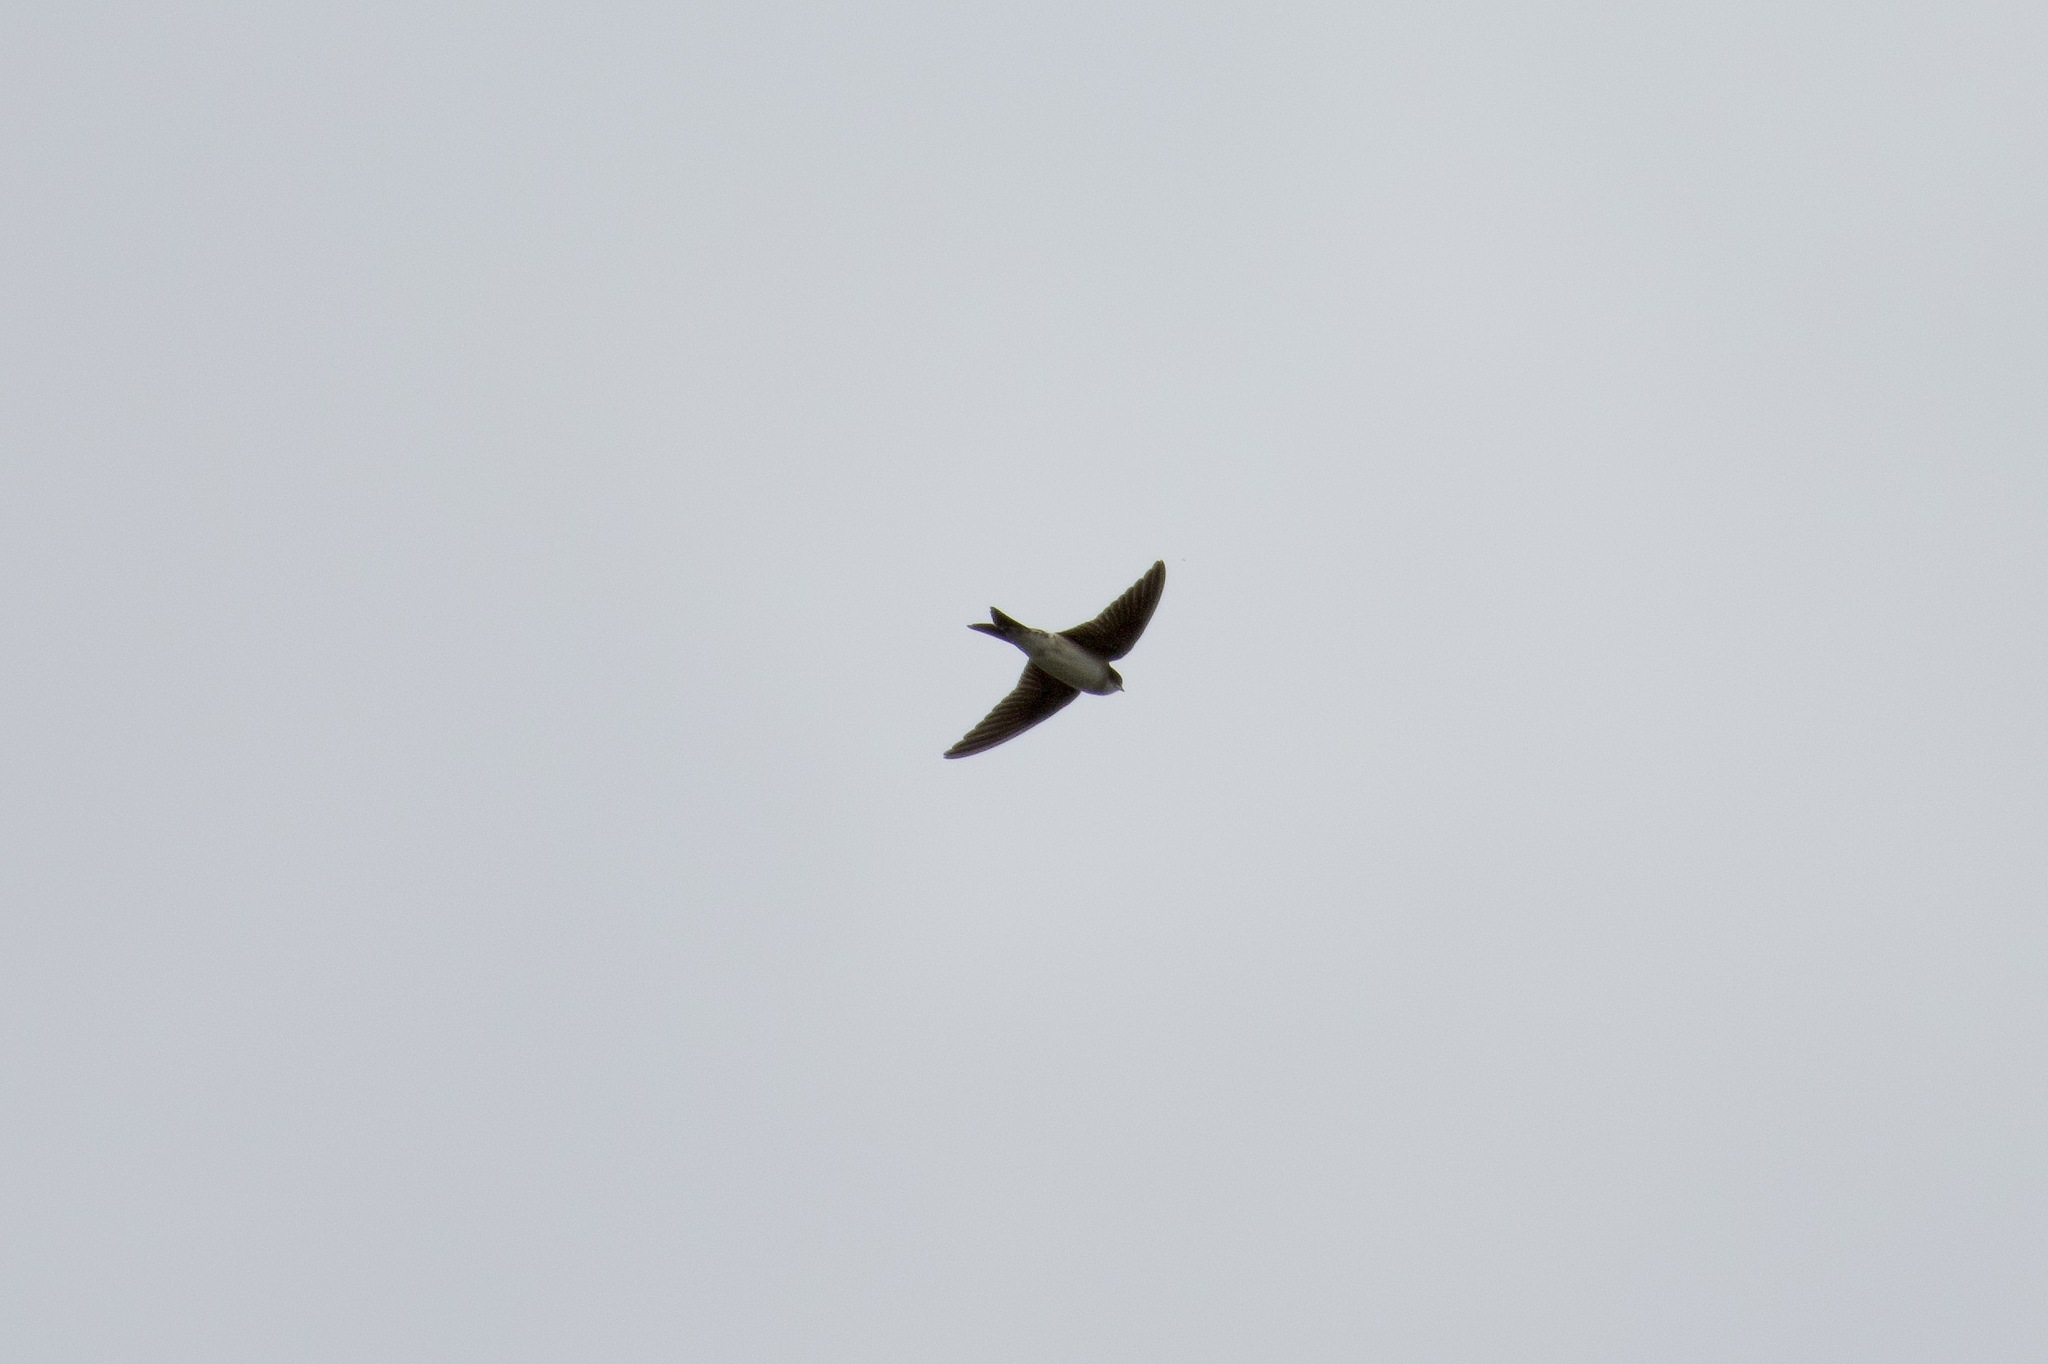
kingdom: Animalia
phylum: Chordata
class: Aves
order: Passeriformes
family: Hirundinidae
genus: Delichon
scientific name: Delichon urbicum
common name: Common house martin
